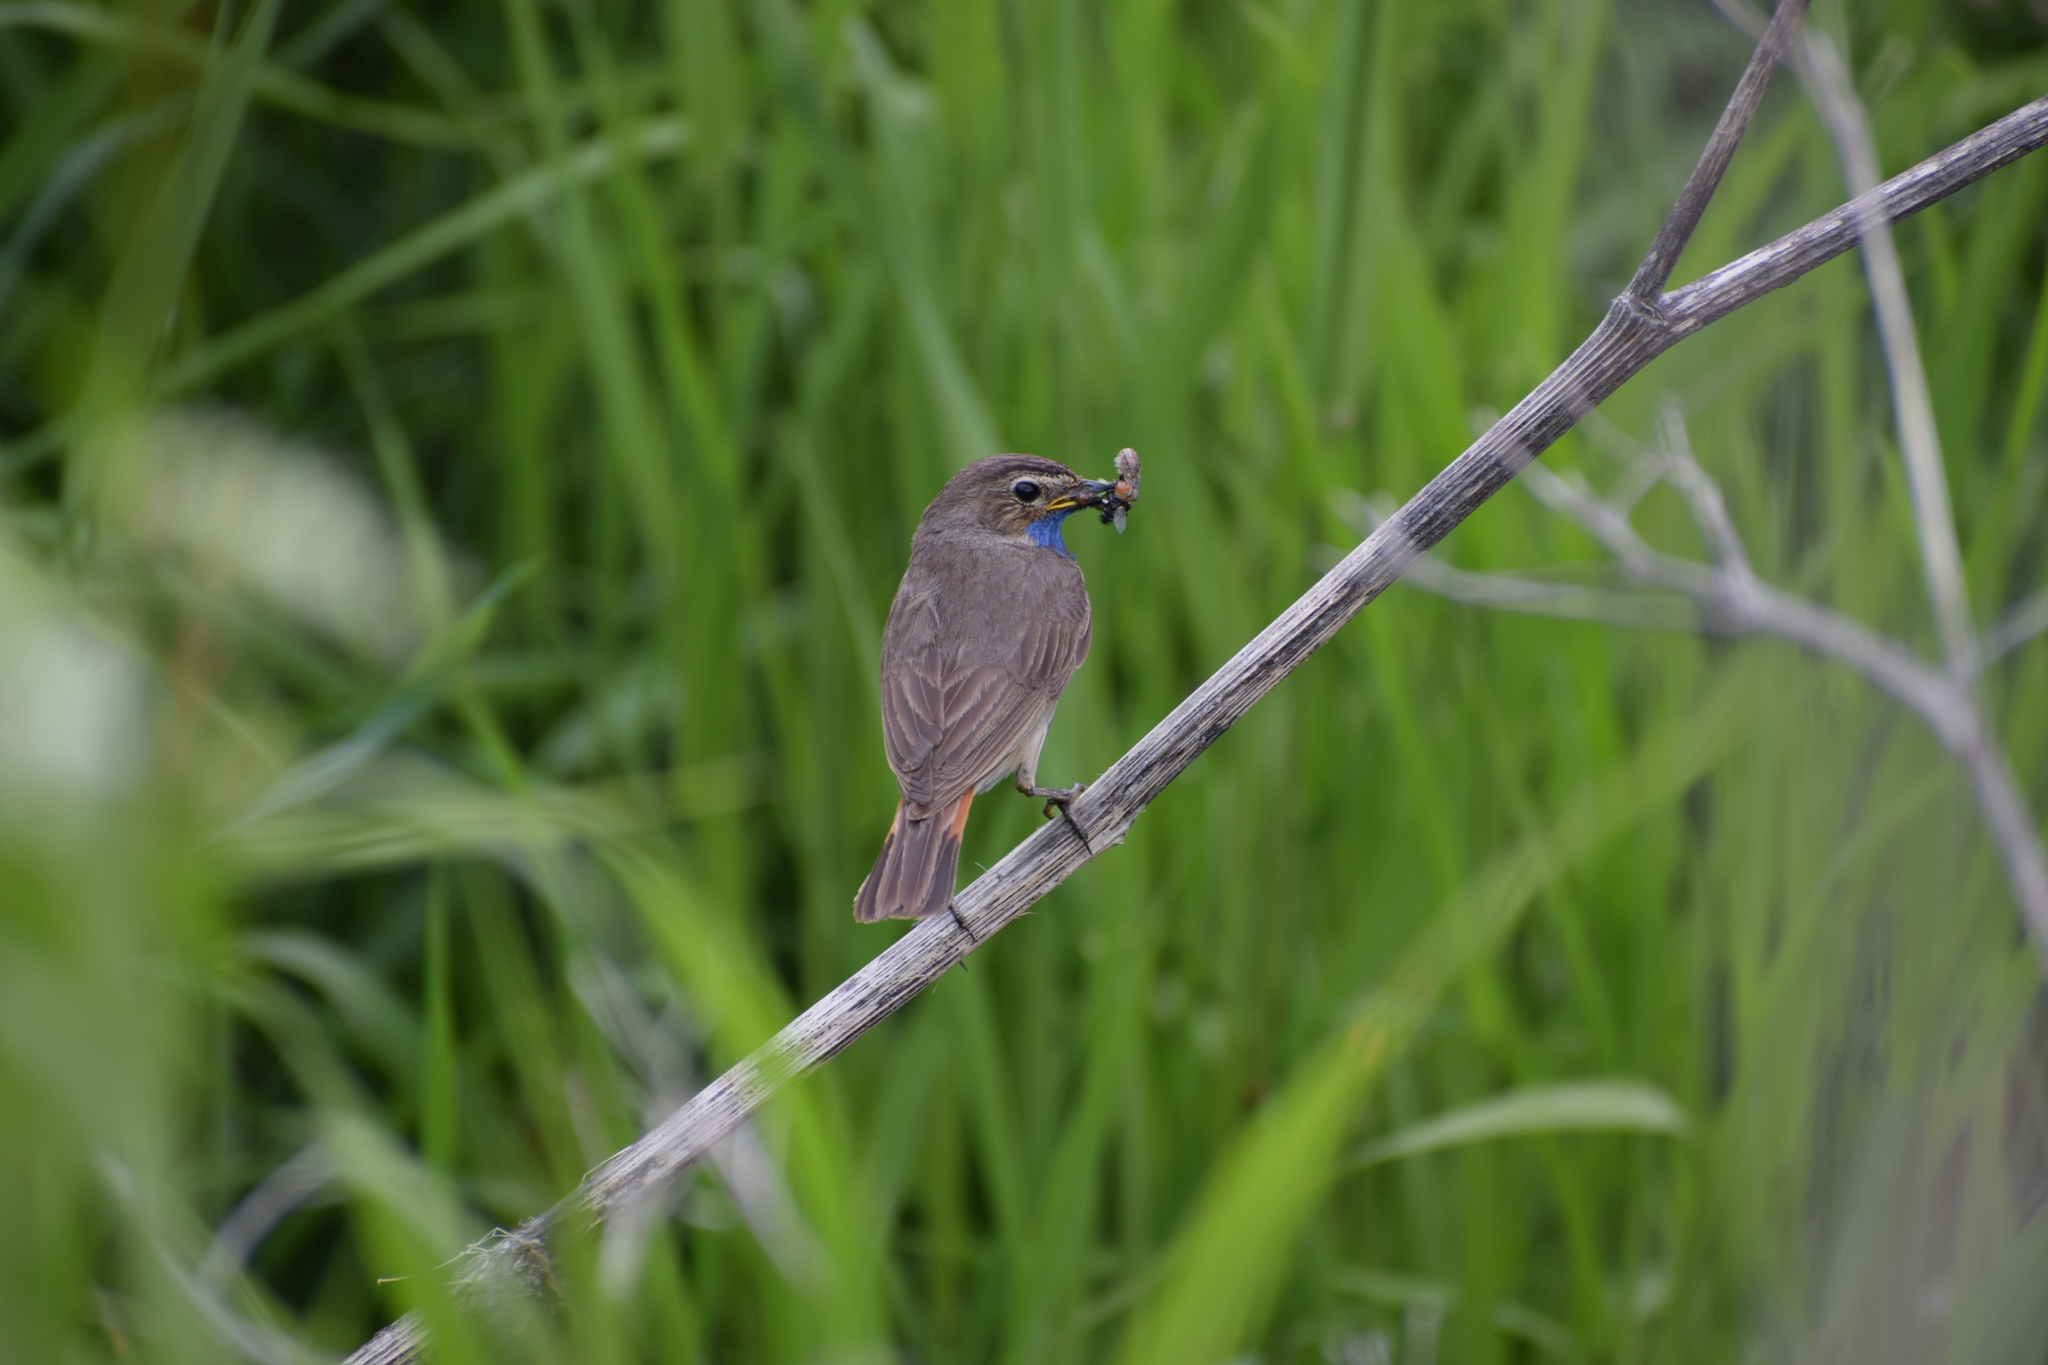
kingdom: Animalia
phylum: Chordata
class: Aves
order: Passeriformes
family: Muscicapidae
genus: Luscinia
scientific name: Luscinia svecica
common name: Bluethroat
